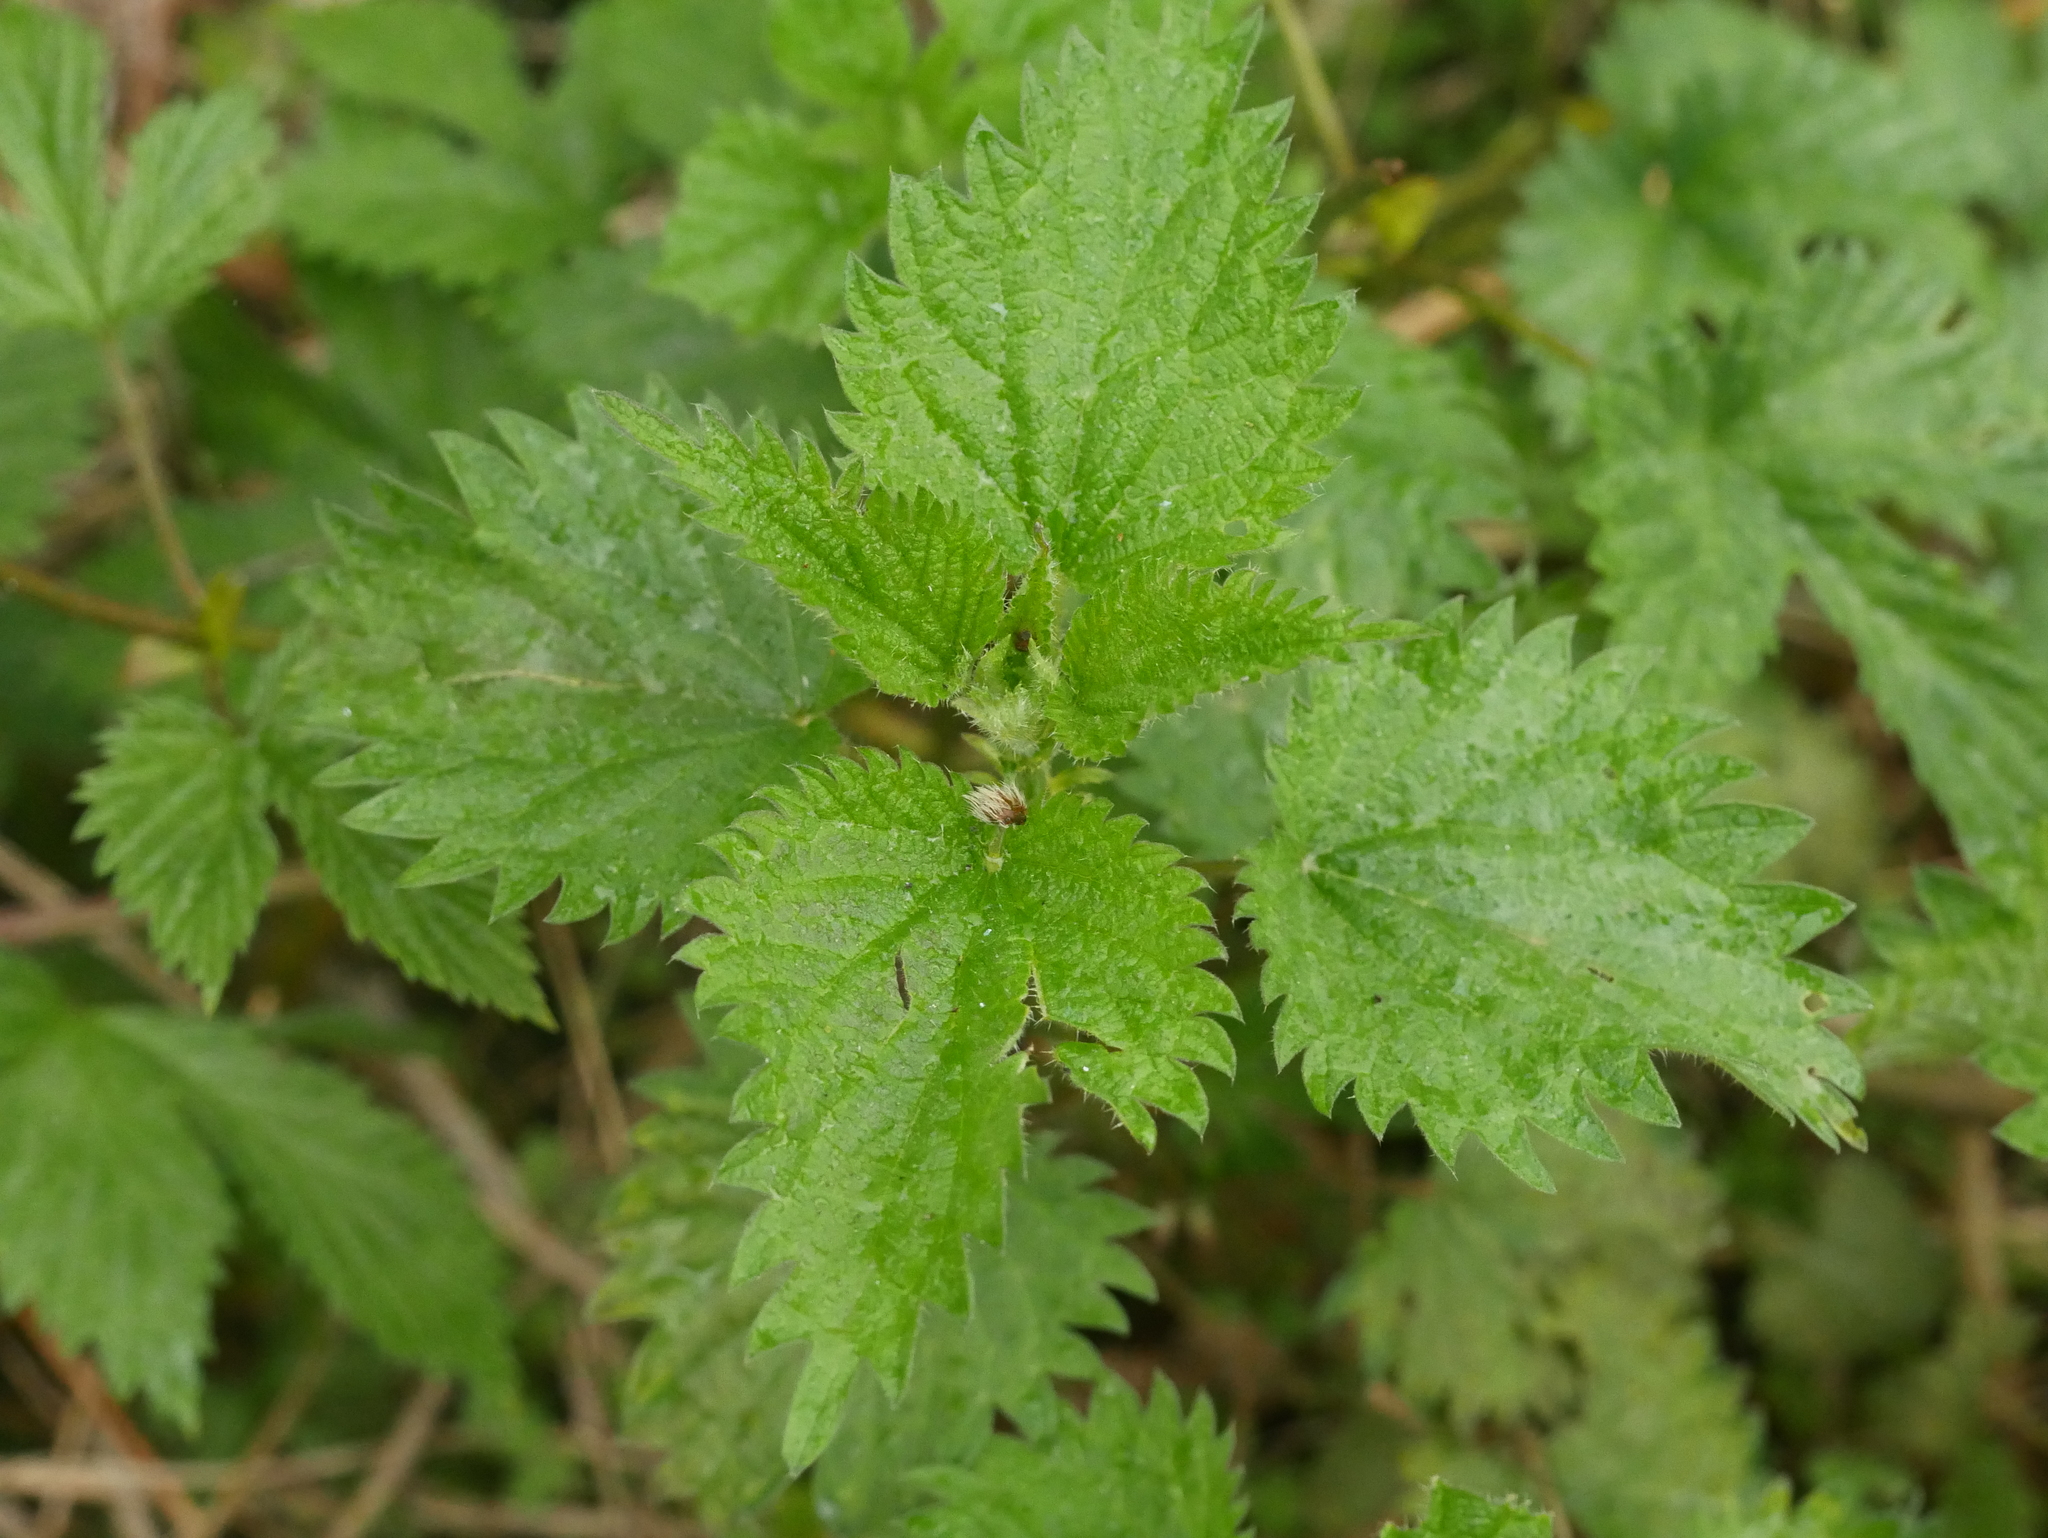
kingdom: Plantae
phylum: Tracheophyta
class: Magnoliopsida
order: Rosales
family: Urticaceae
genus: Urtica
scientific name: Urtica dioica
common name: Common nettle
